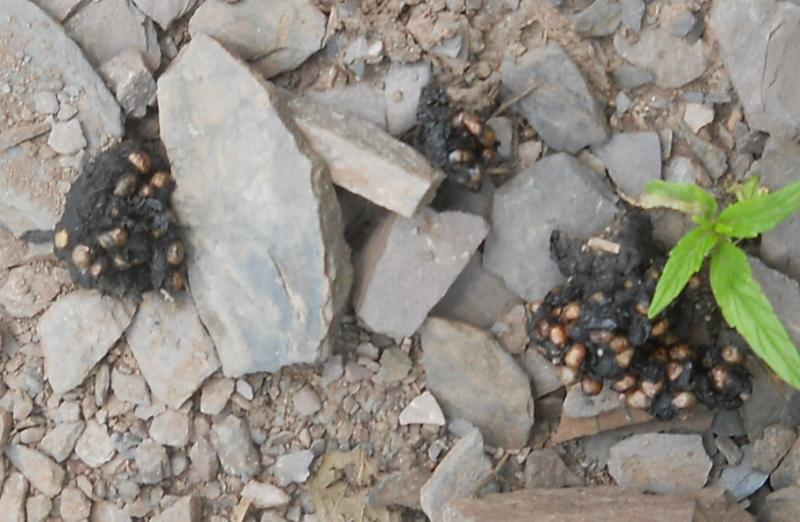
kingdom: Animalia
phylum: Chordata
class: Mammalia
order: Carnivora
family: Canidae
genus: Vulpes
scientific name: Vulpes vulpes
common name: Red fox
